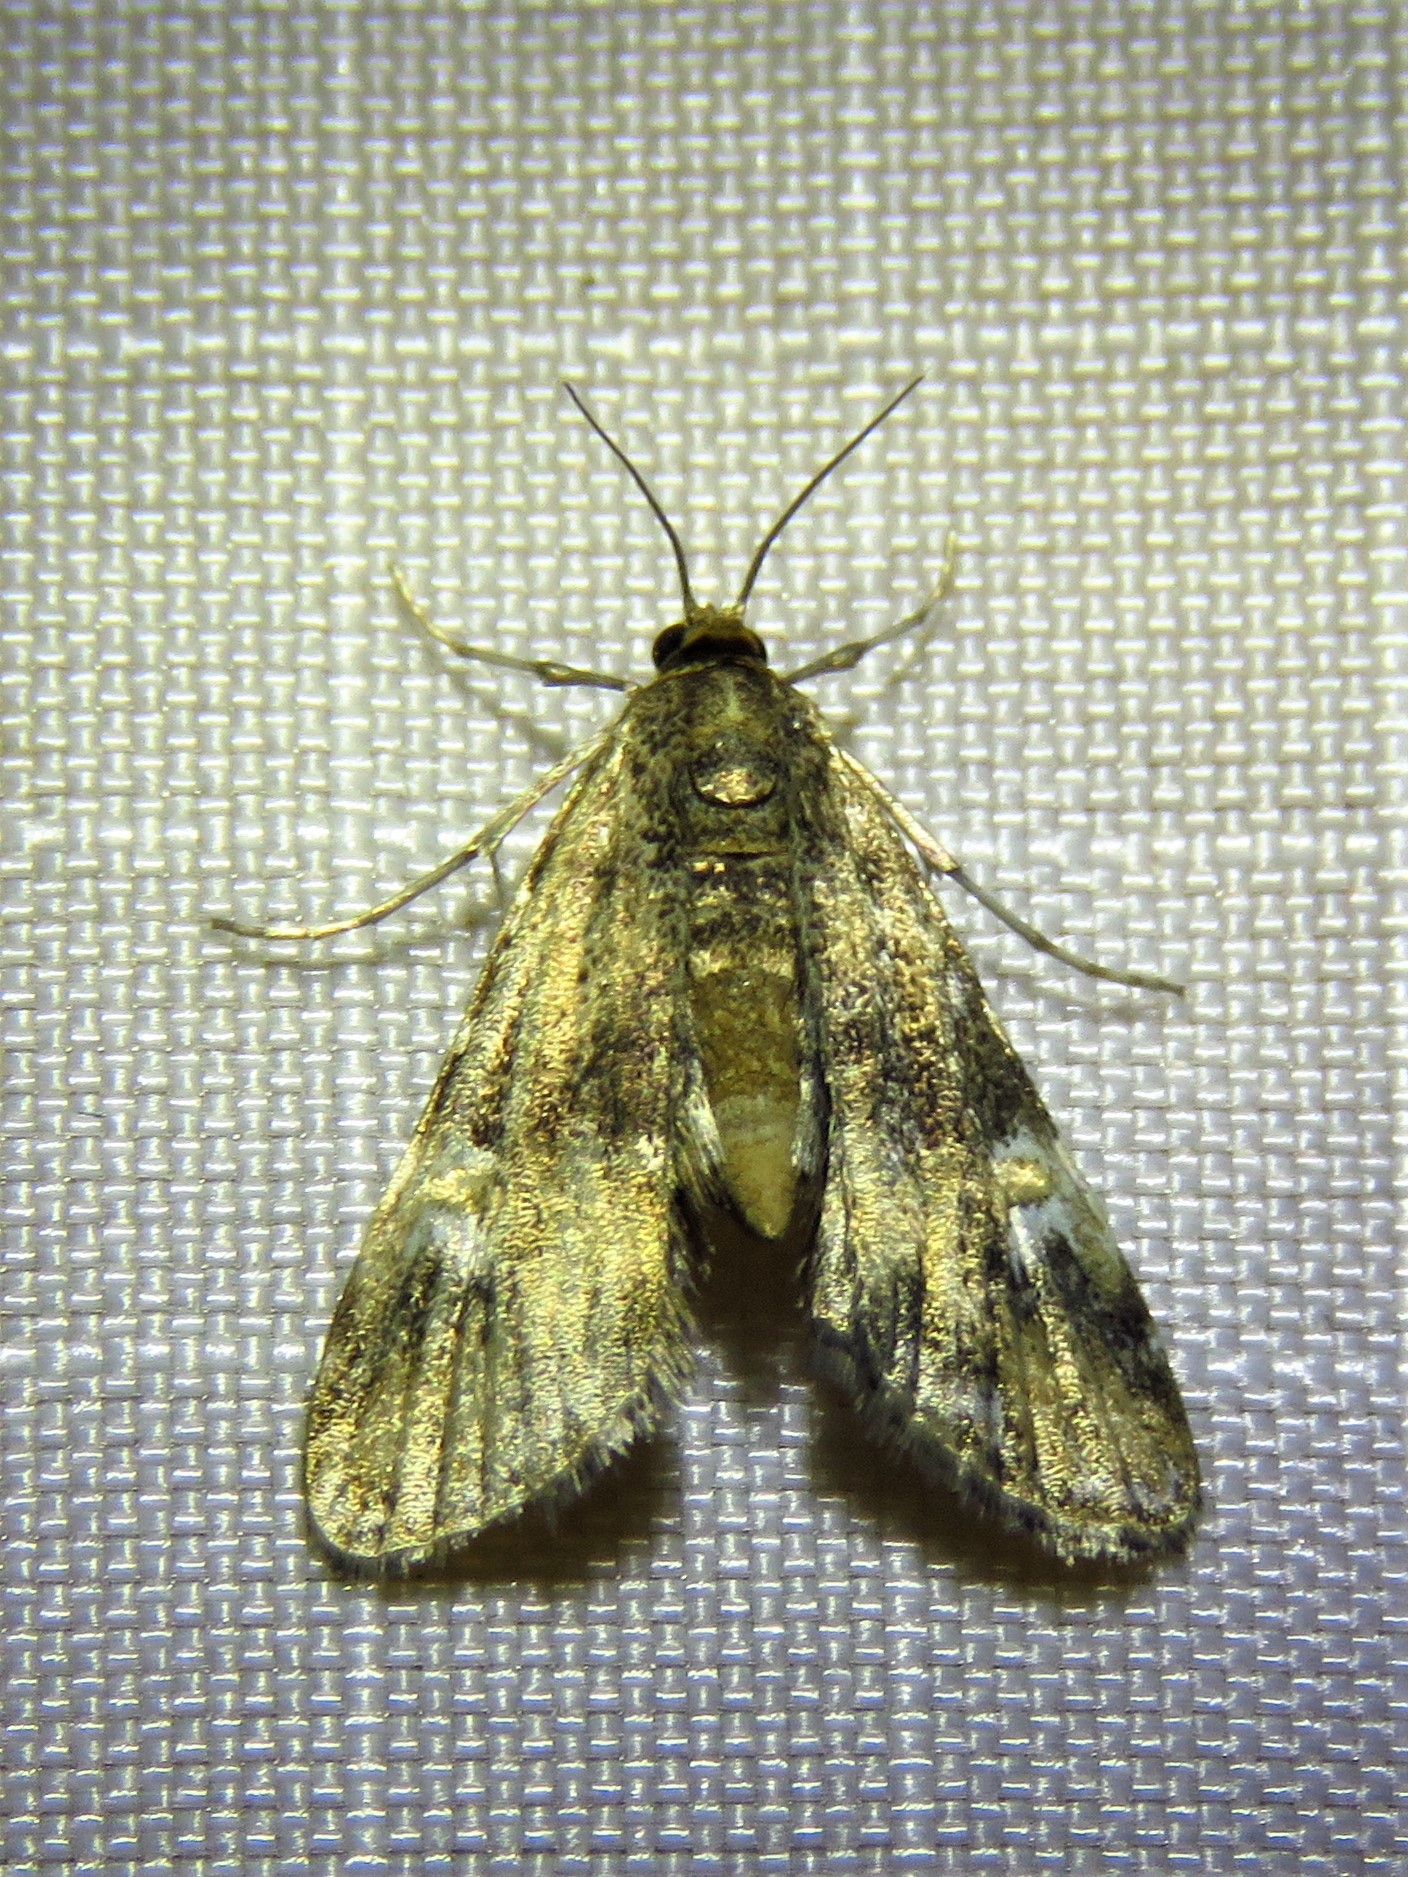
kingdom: Animalia
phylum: Arthropoda
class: Insecta
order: Lepidoptera
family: Crambidae
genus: Elophila
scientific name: Elophila obliteralis
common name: Waterlily leafcutter moth
